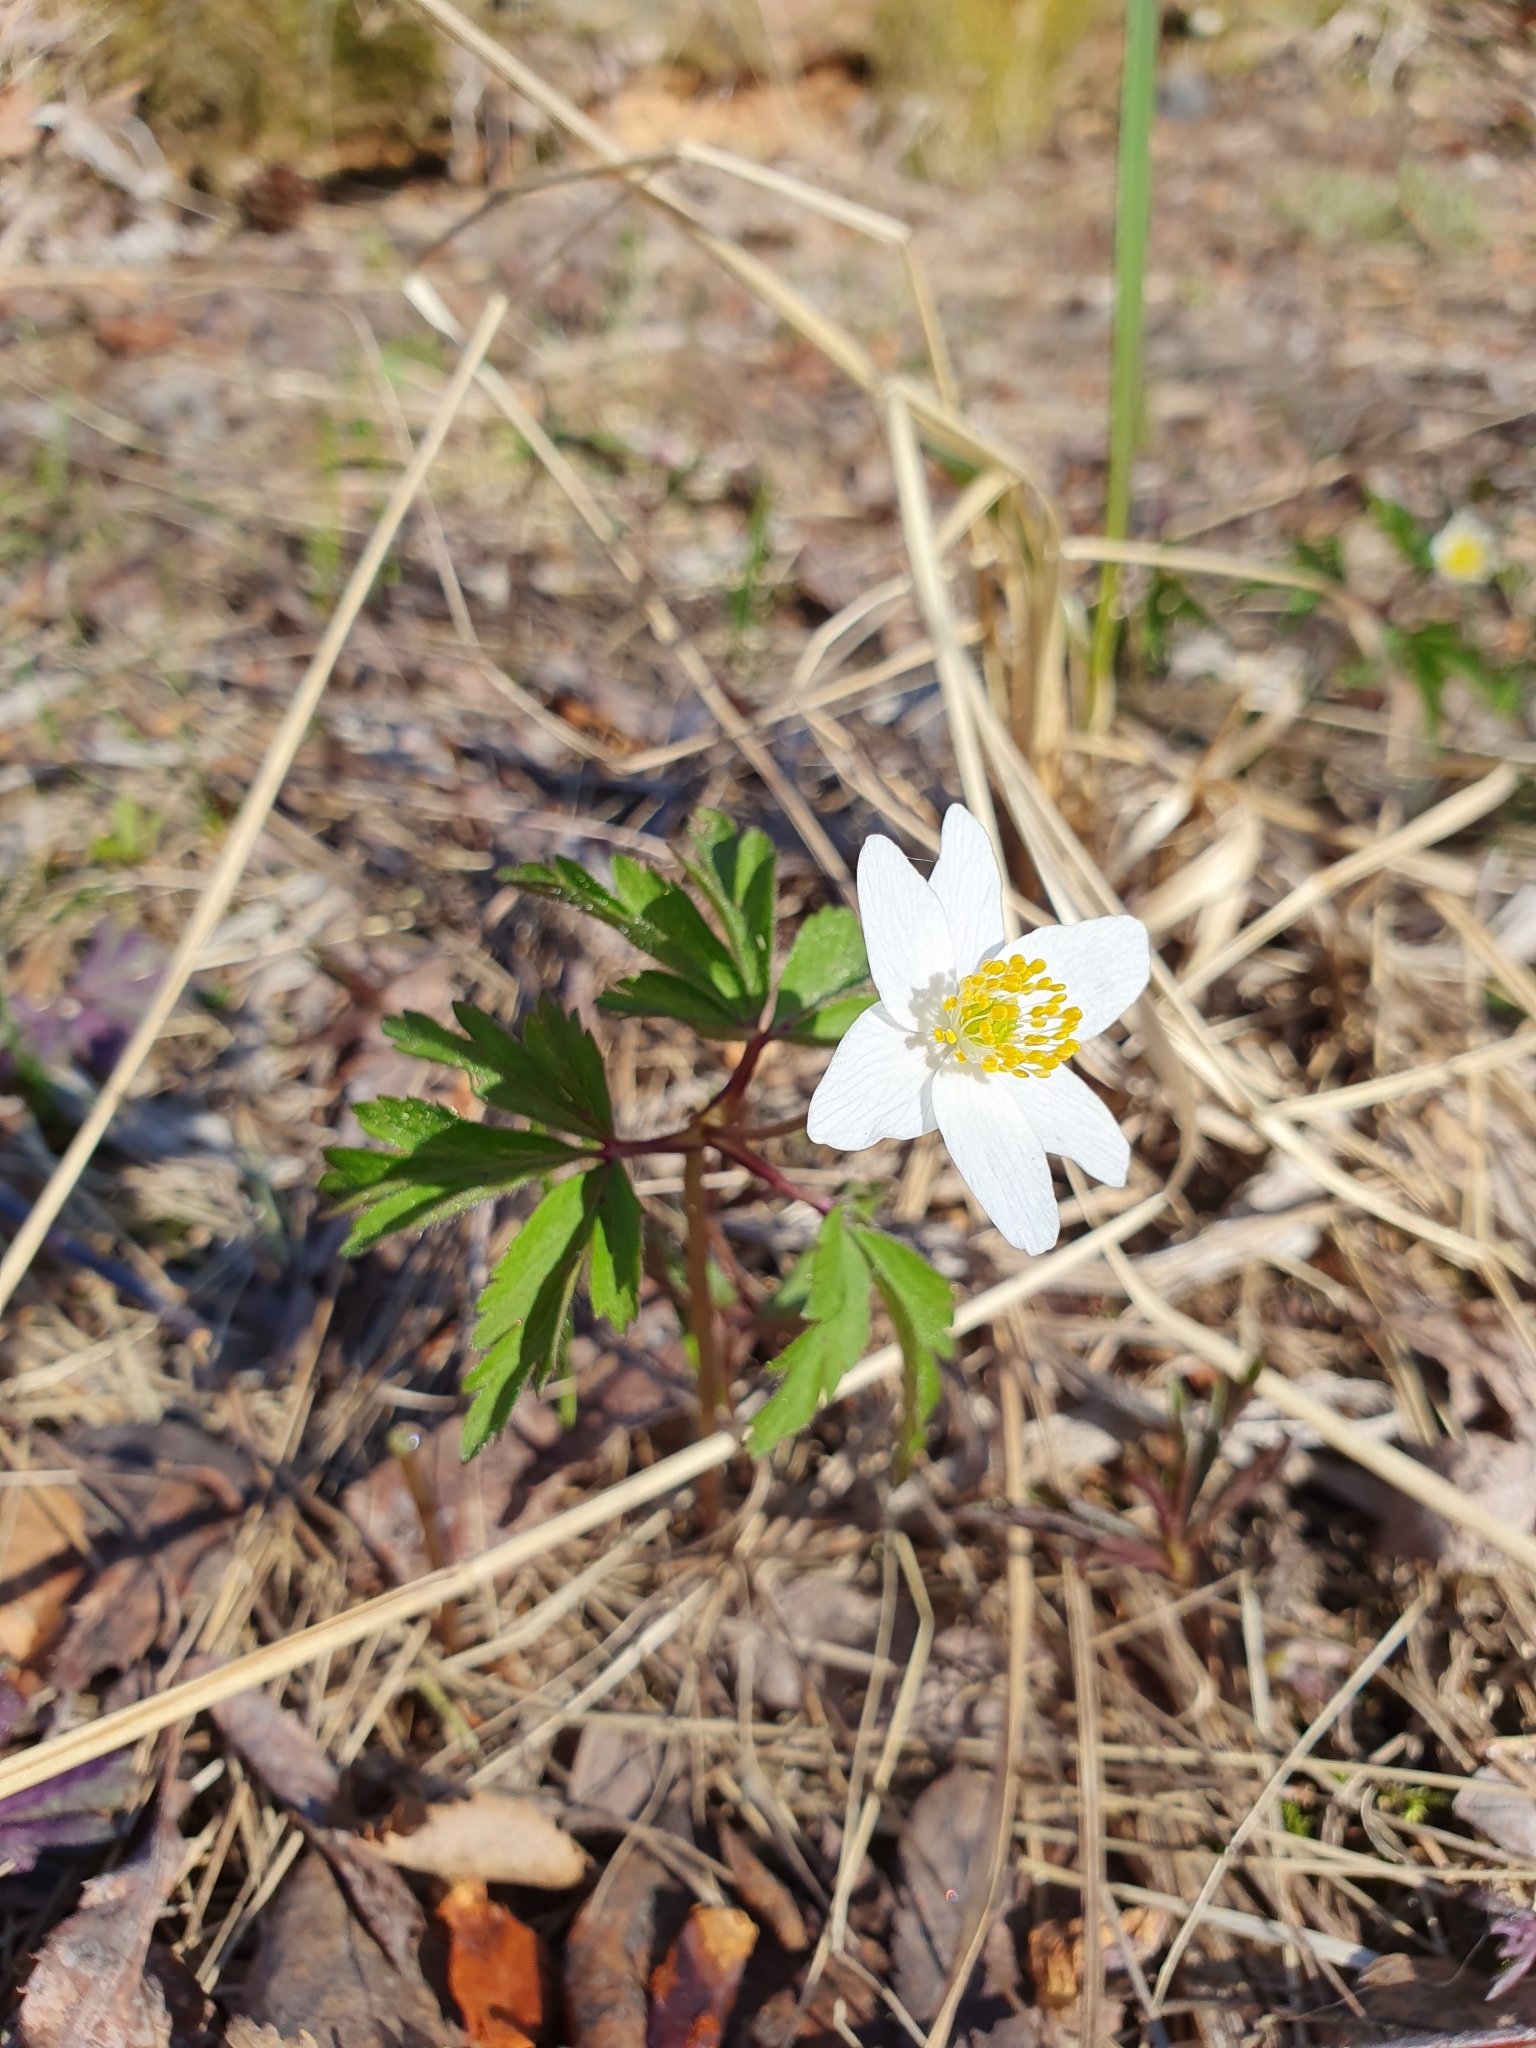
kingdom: Plantae
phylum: Tracheophyta
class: Magnoliopsida
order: Ranunculales
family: Ranunculaceae
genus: Anemone
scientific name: Anemone nemorosa
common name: Wood anemone
